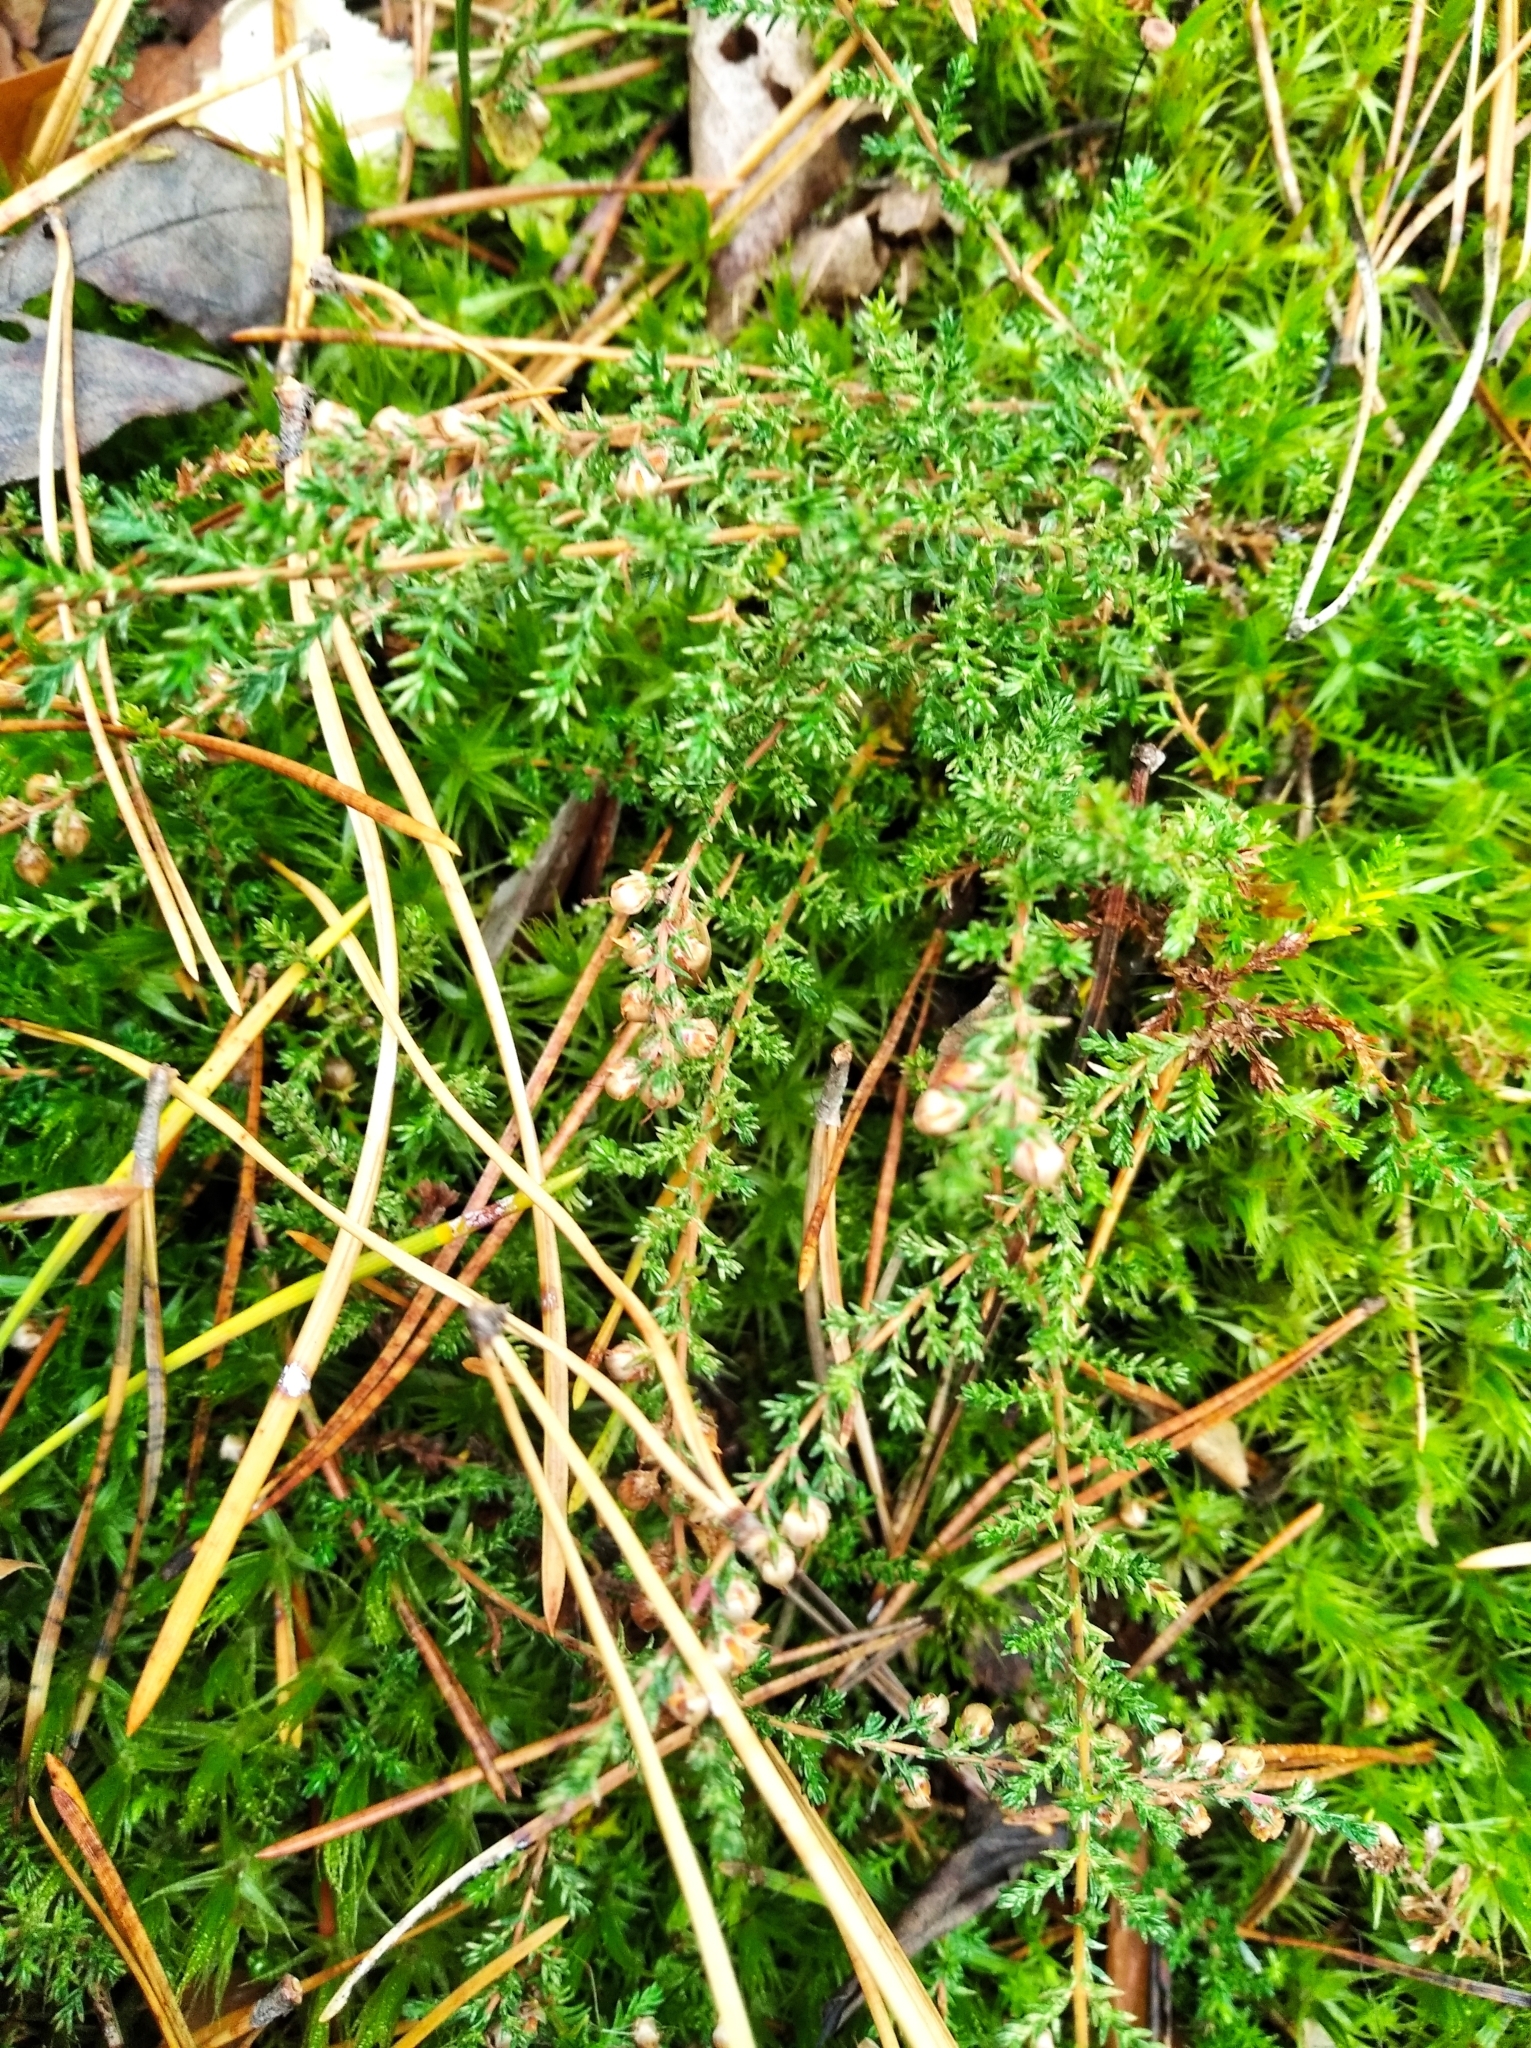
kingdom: Plantae
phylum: Tracheophyta
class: Magnoliopsida
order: Ericales
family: Ericaceae
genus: Calluna
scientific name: Calluna vulgaris
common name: Heather
